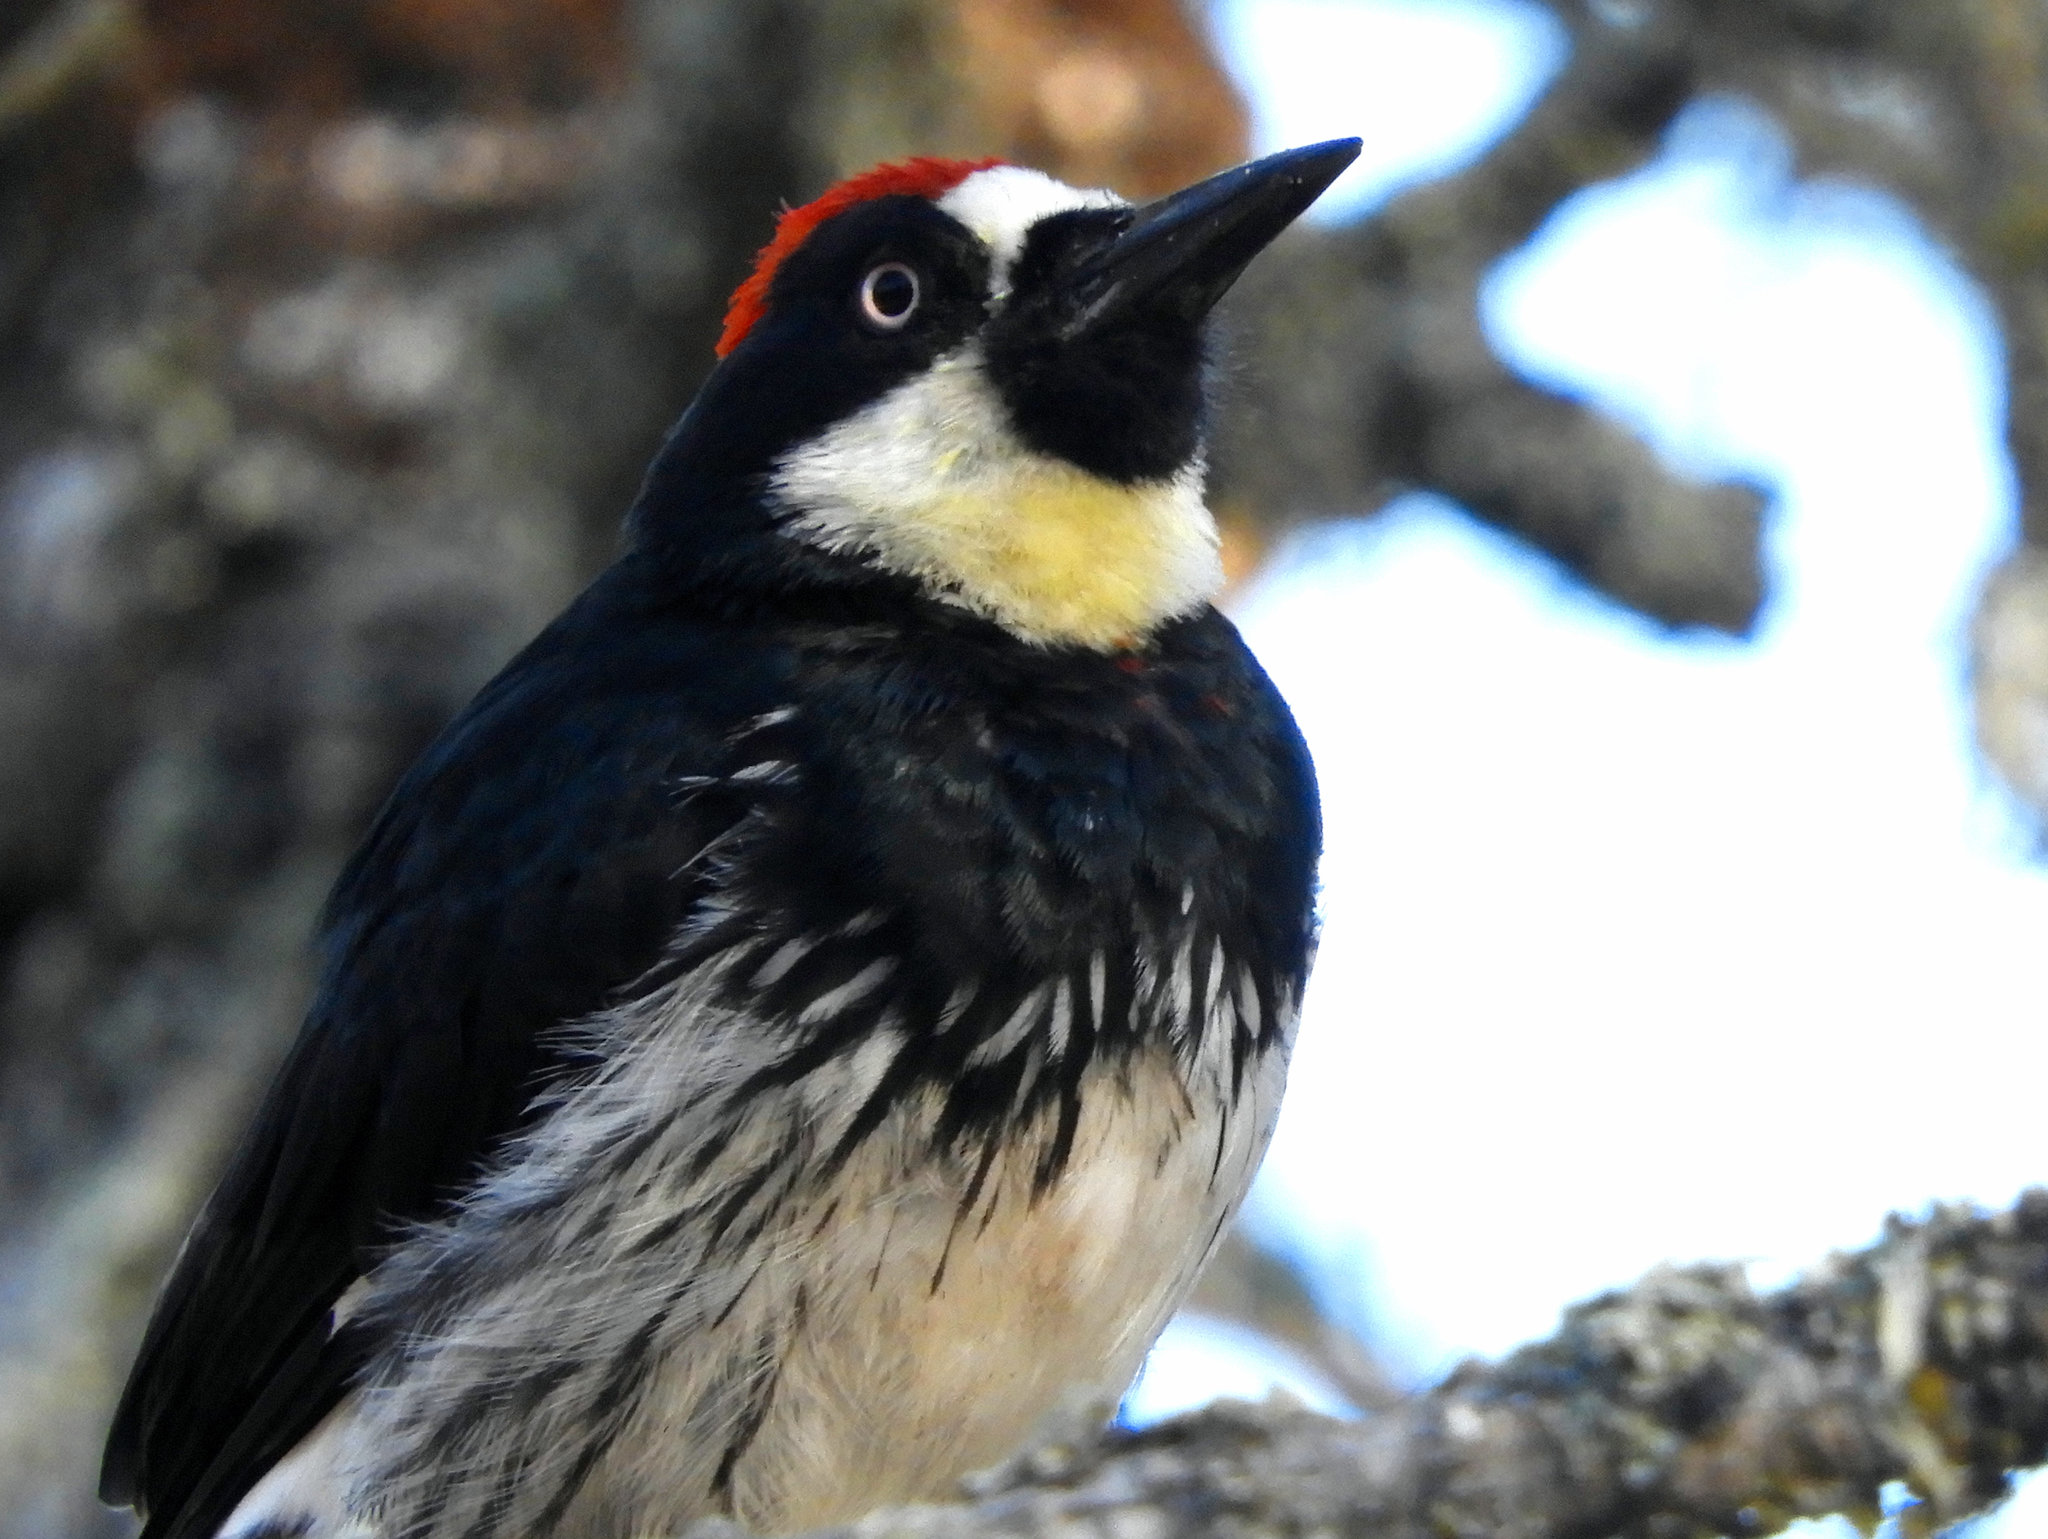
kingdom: Animalia
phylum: Chordata
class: Aves
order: Piciformes
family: Picidae
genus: Melanerpes
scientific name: Melanerpes formicivorus
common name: Acorn woodpecker
